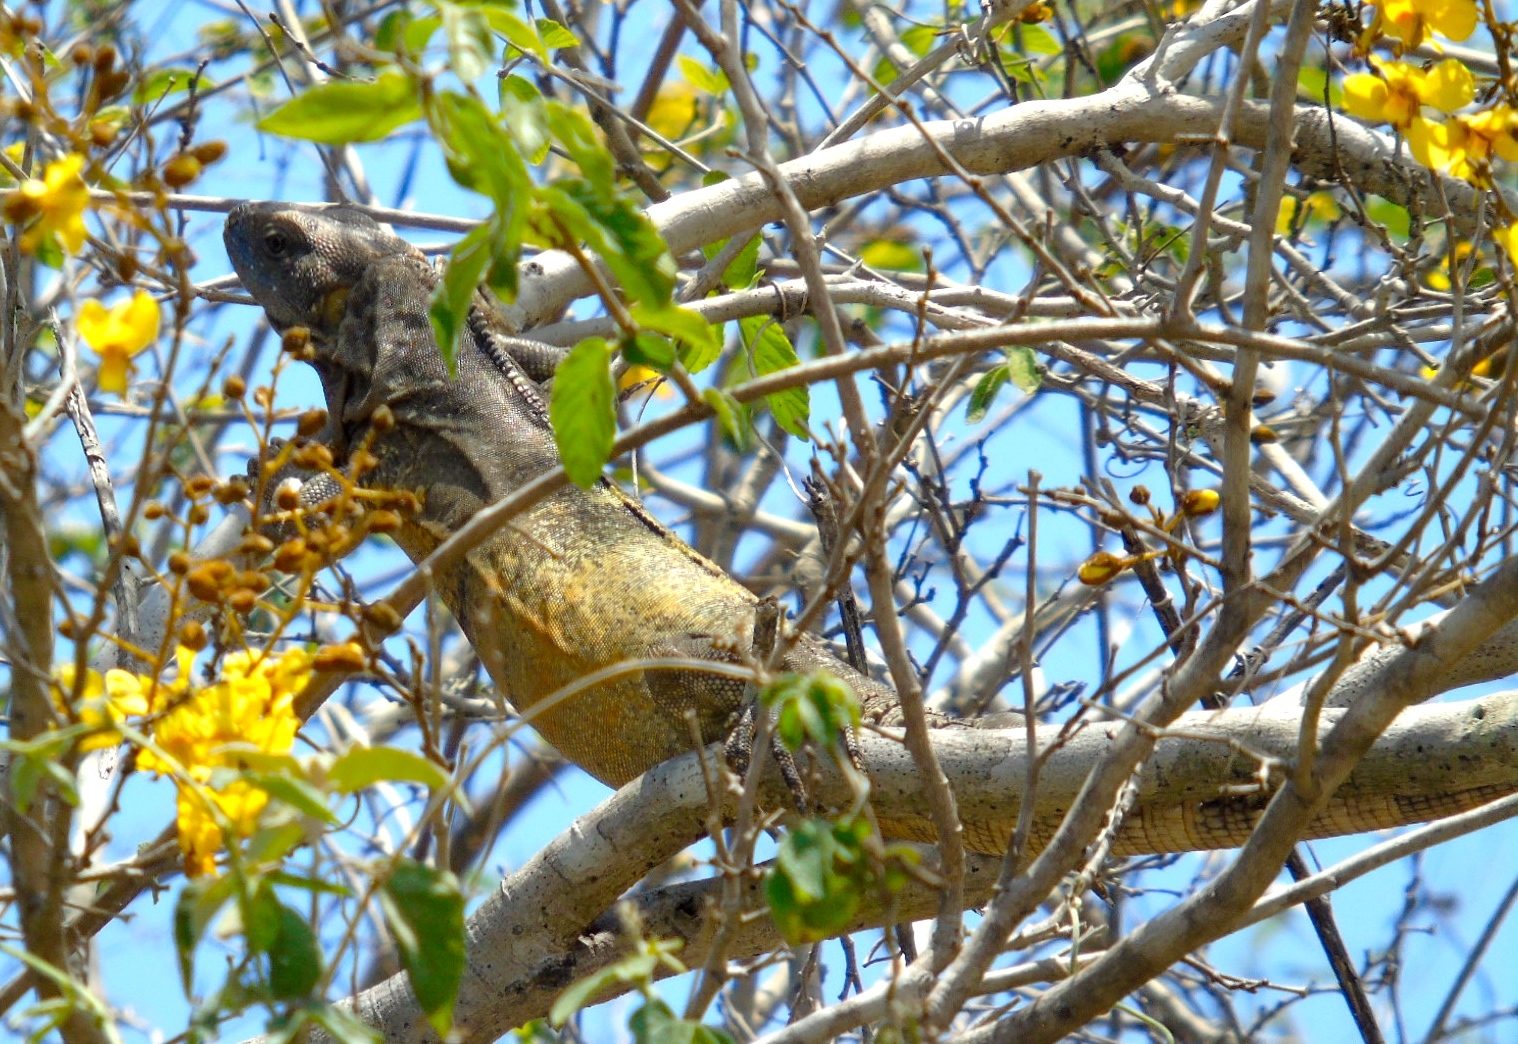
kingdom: Animalia
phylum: Chordata
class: Squamata
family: Iguanidae
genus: Ctenosaura
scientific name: Ctenosaura pectinata
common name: Guerreran spiny-tailed iguana
